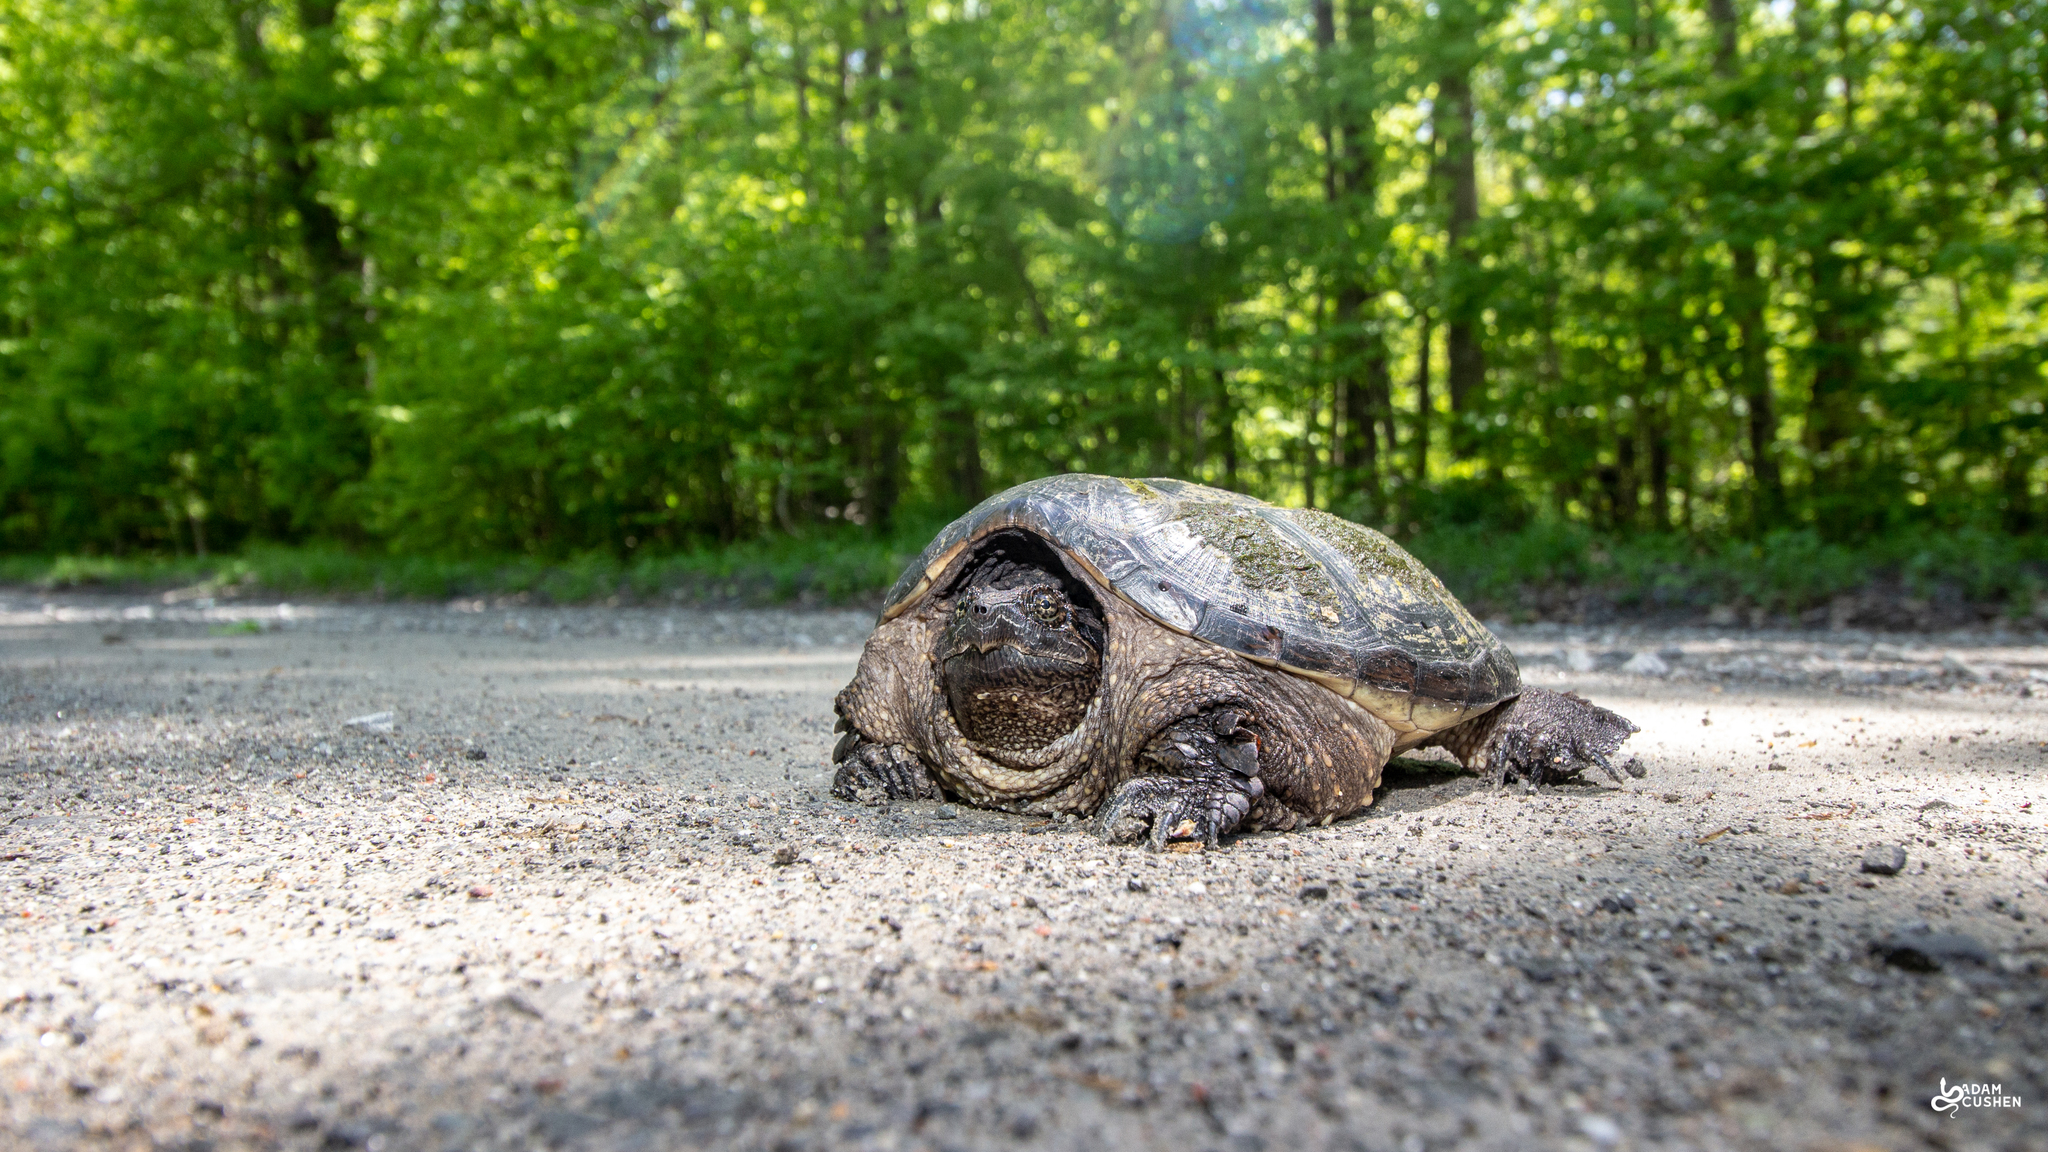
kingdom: Animalia
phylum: Chordata
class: Testudines
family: Chelydridae
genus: Chelydra
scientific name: Chelydra serpentina
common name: Common snapping turtle
